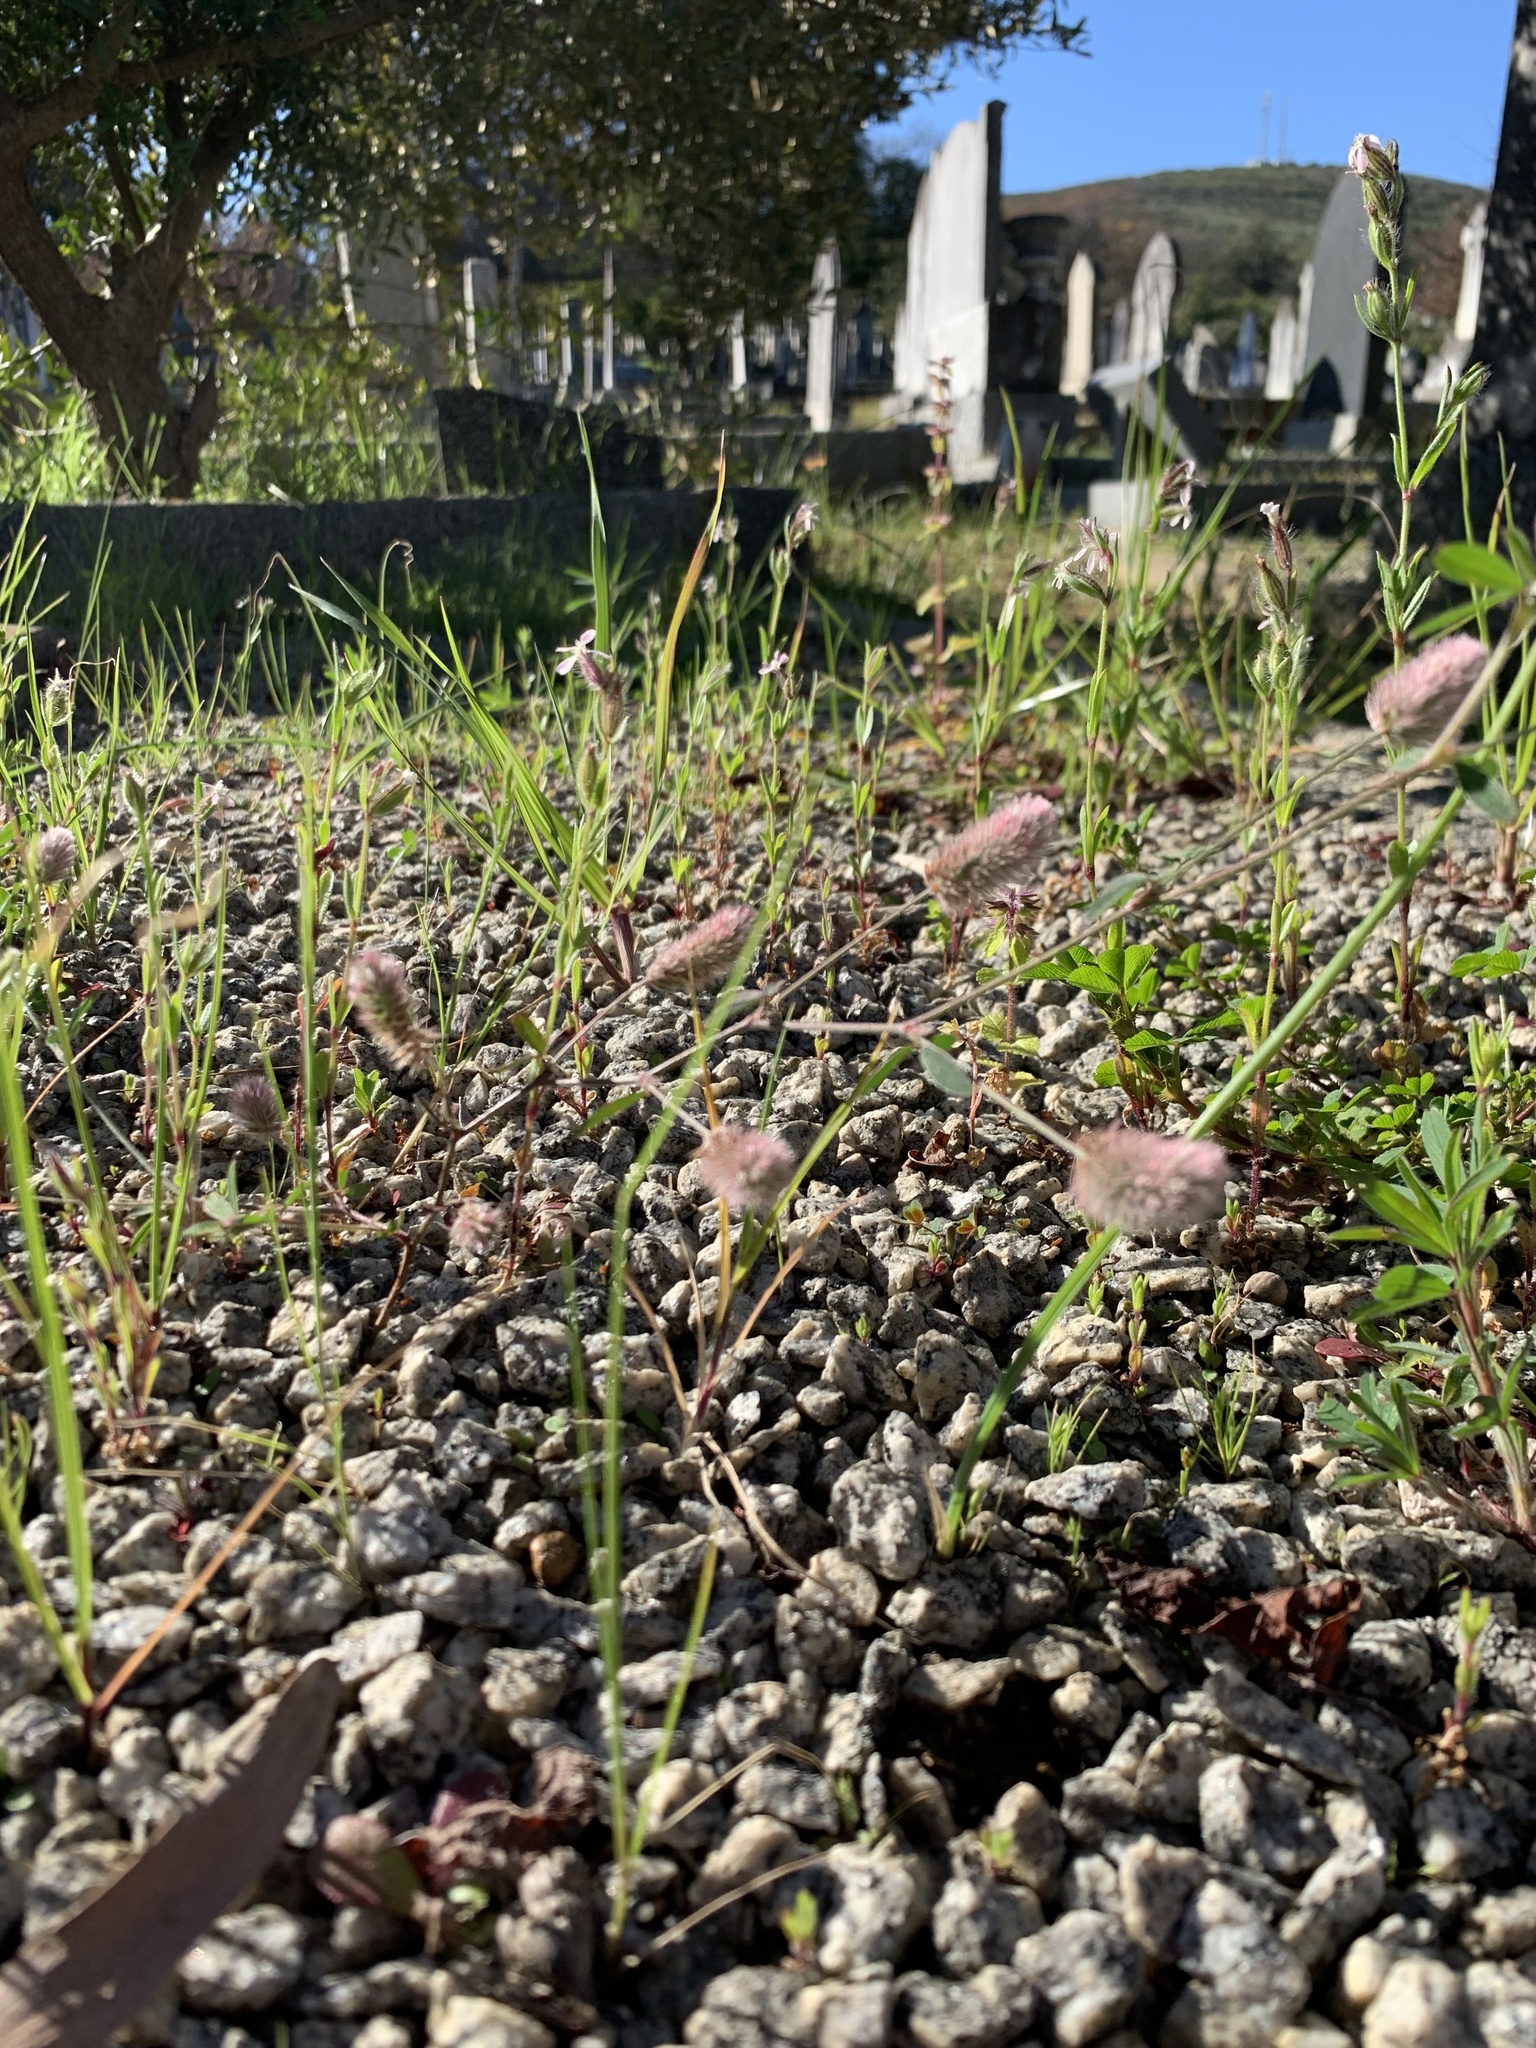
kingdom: Plantae
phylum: Tracheophyta
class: Magnoliopsida
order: Fabales
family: Fabaceae
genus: Trifolium
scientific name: Trifolium arvense
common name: Hare's-foot clover
